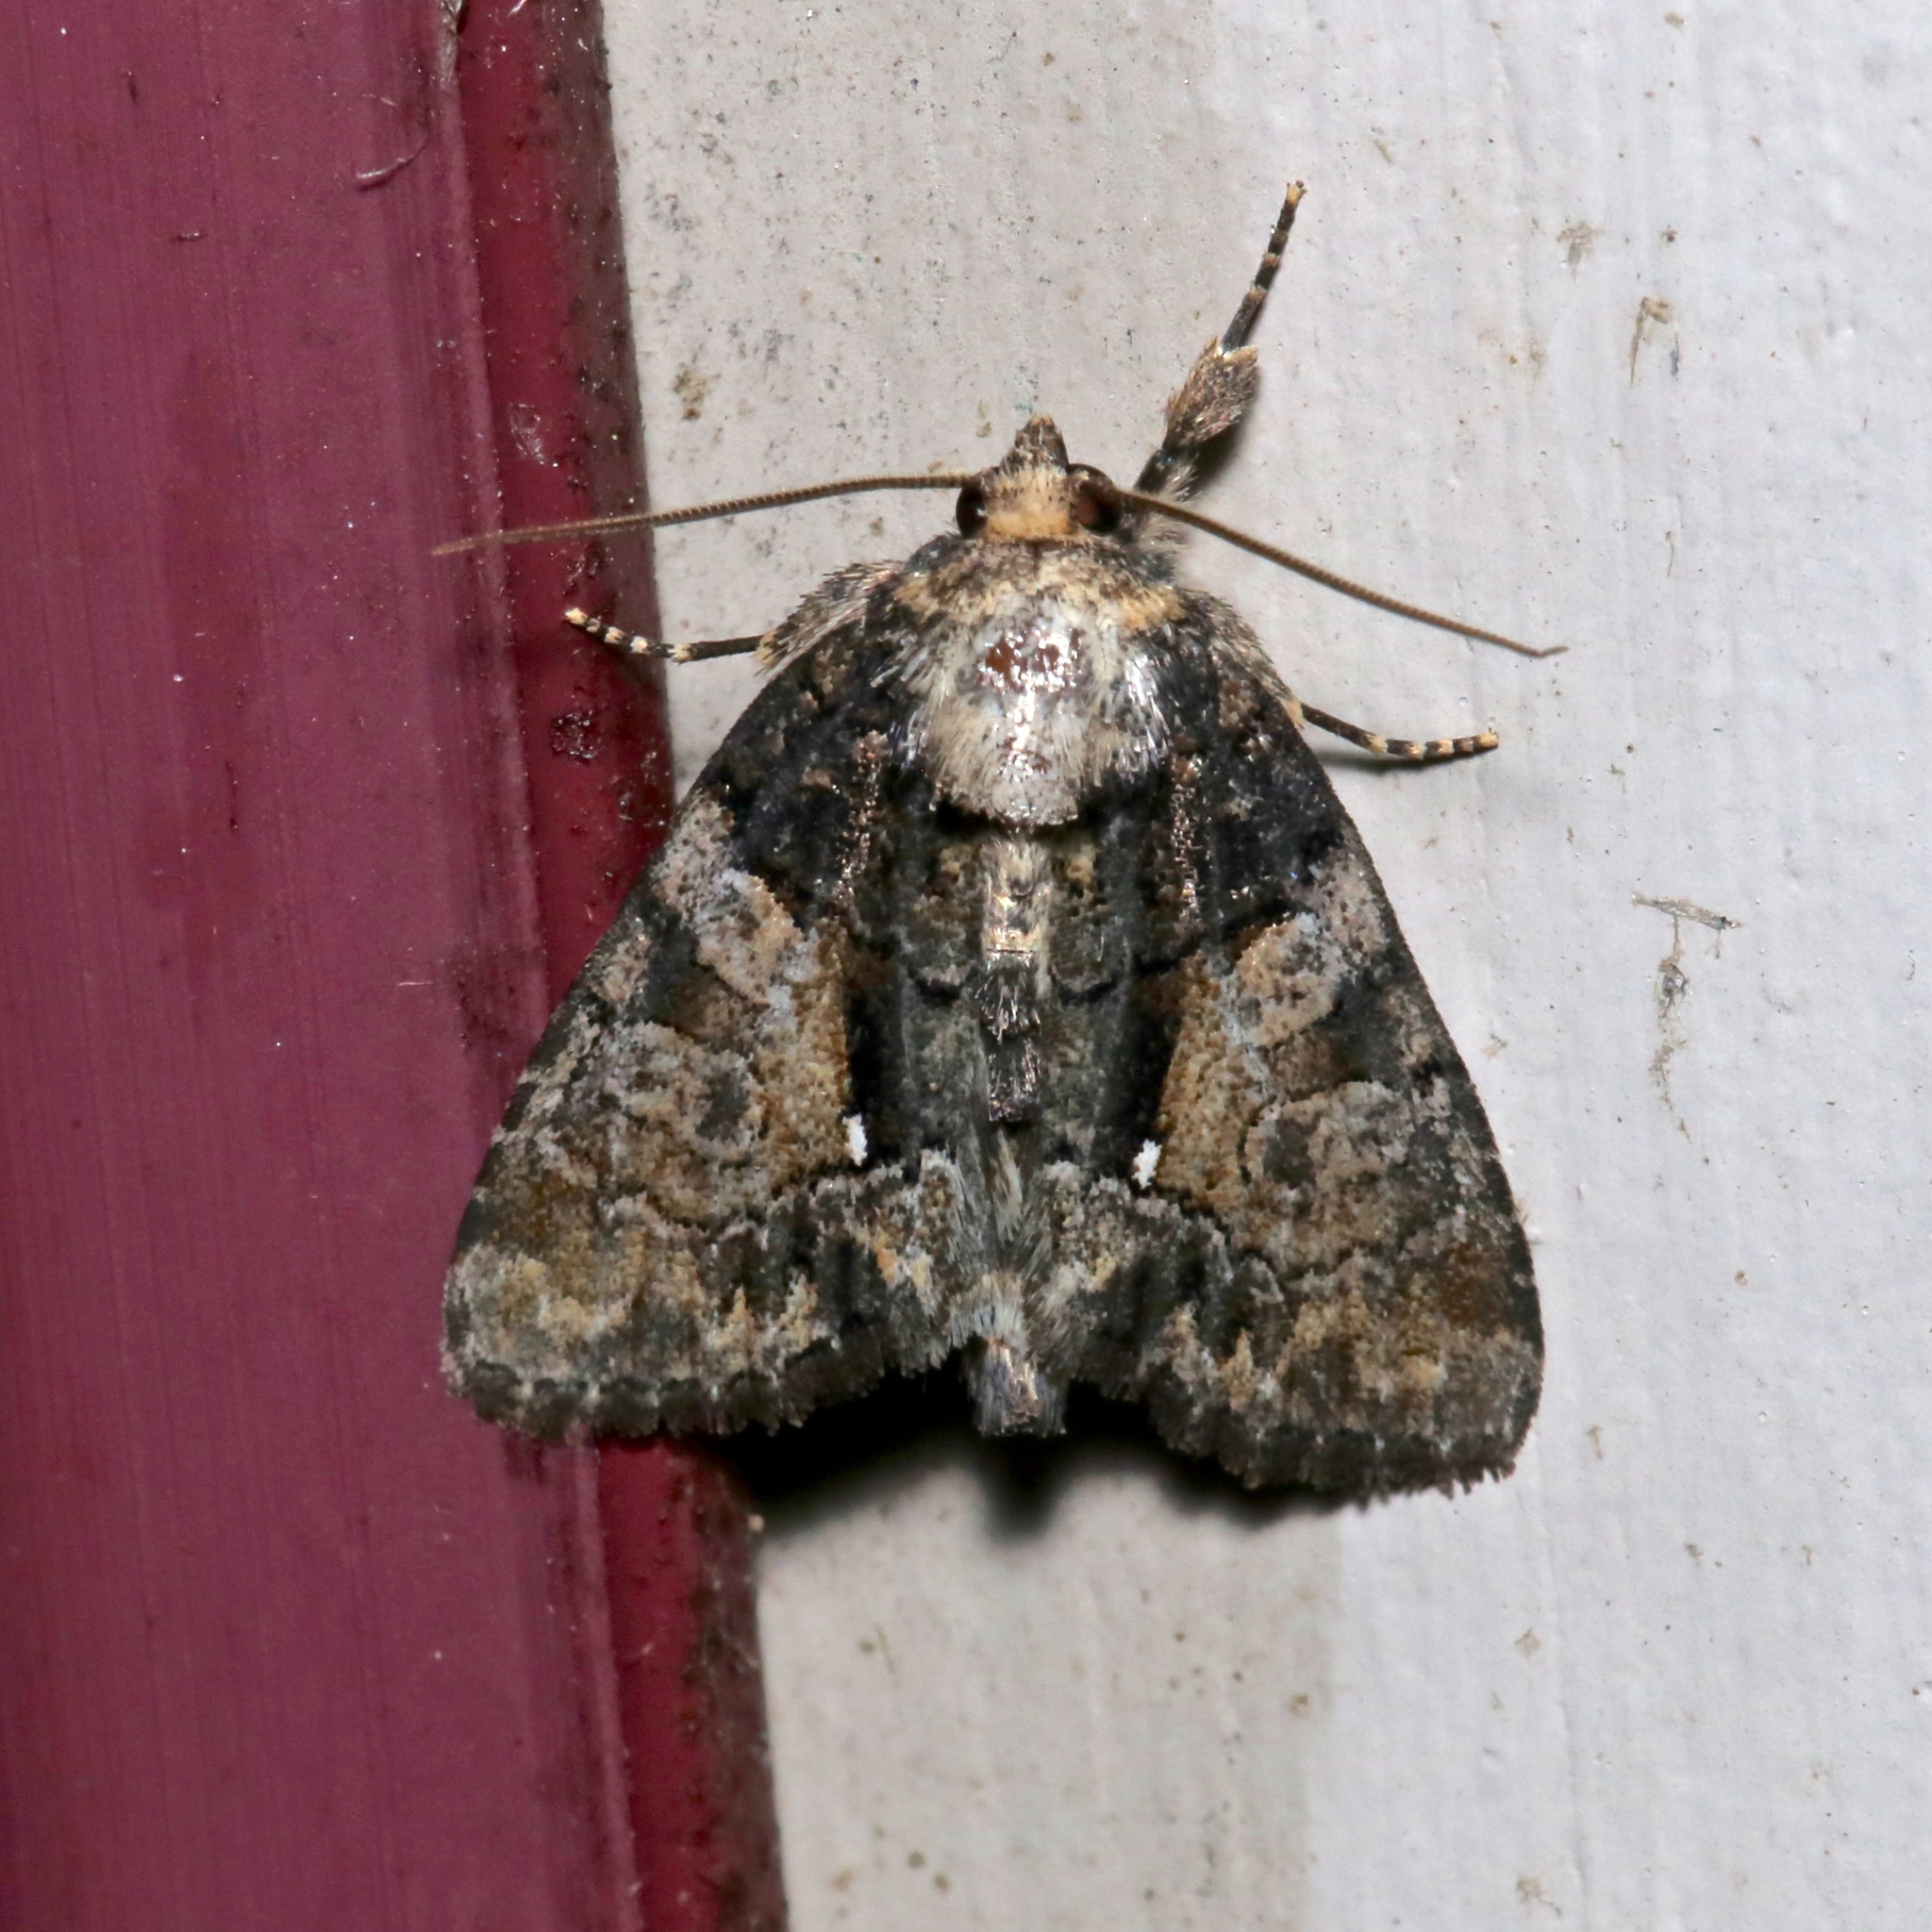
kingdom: Animalia
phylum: Arthropoda
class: Insecta
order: Lepidoptera
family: Noctuidae
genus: Chytonix
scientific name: Chytonix palliatricula
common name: Cloaked marvel
